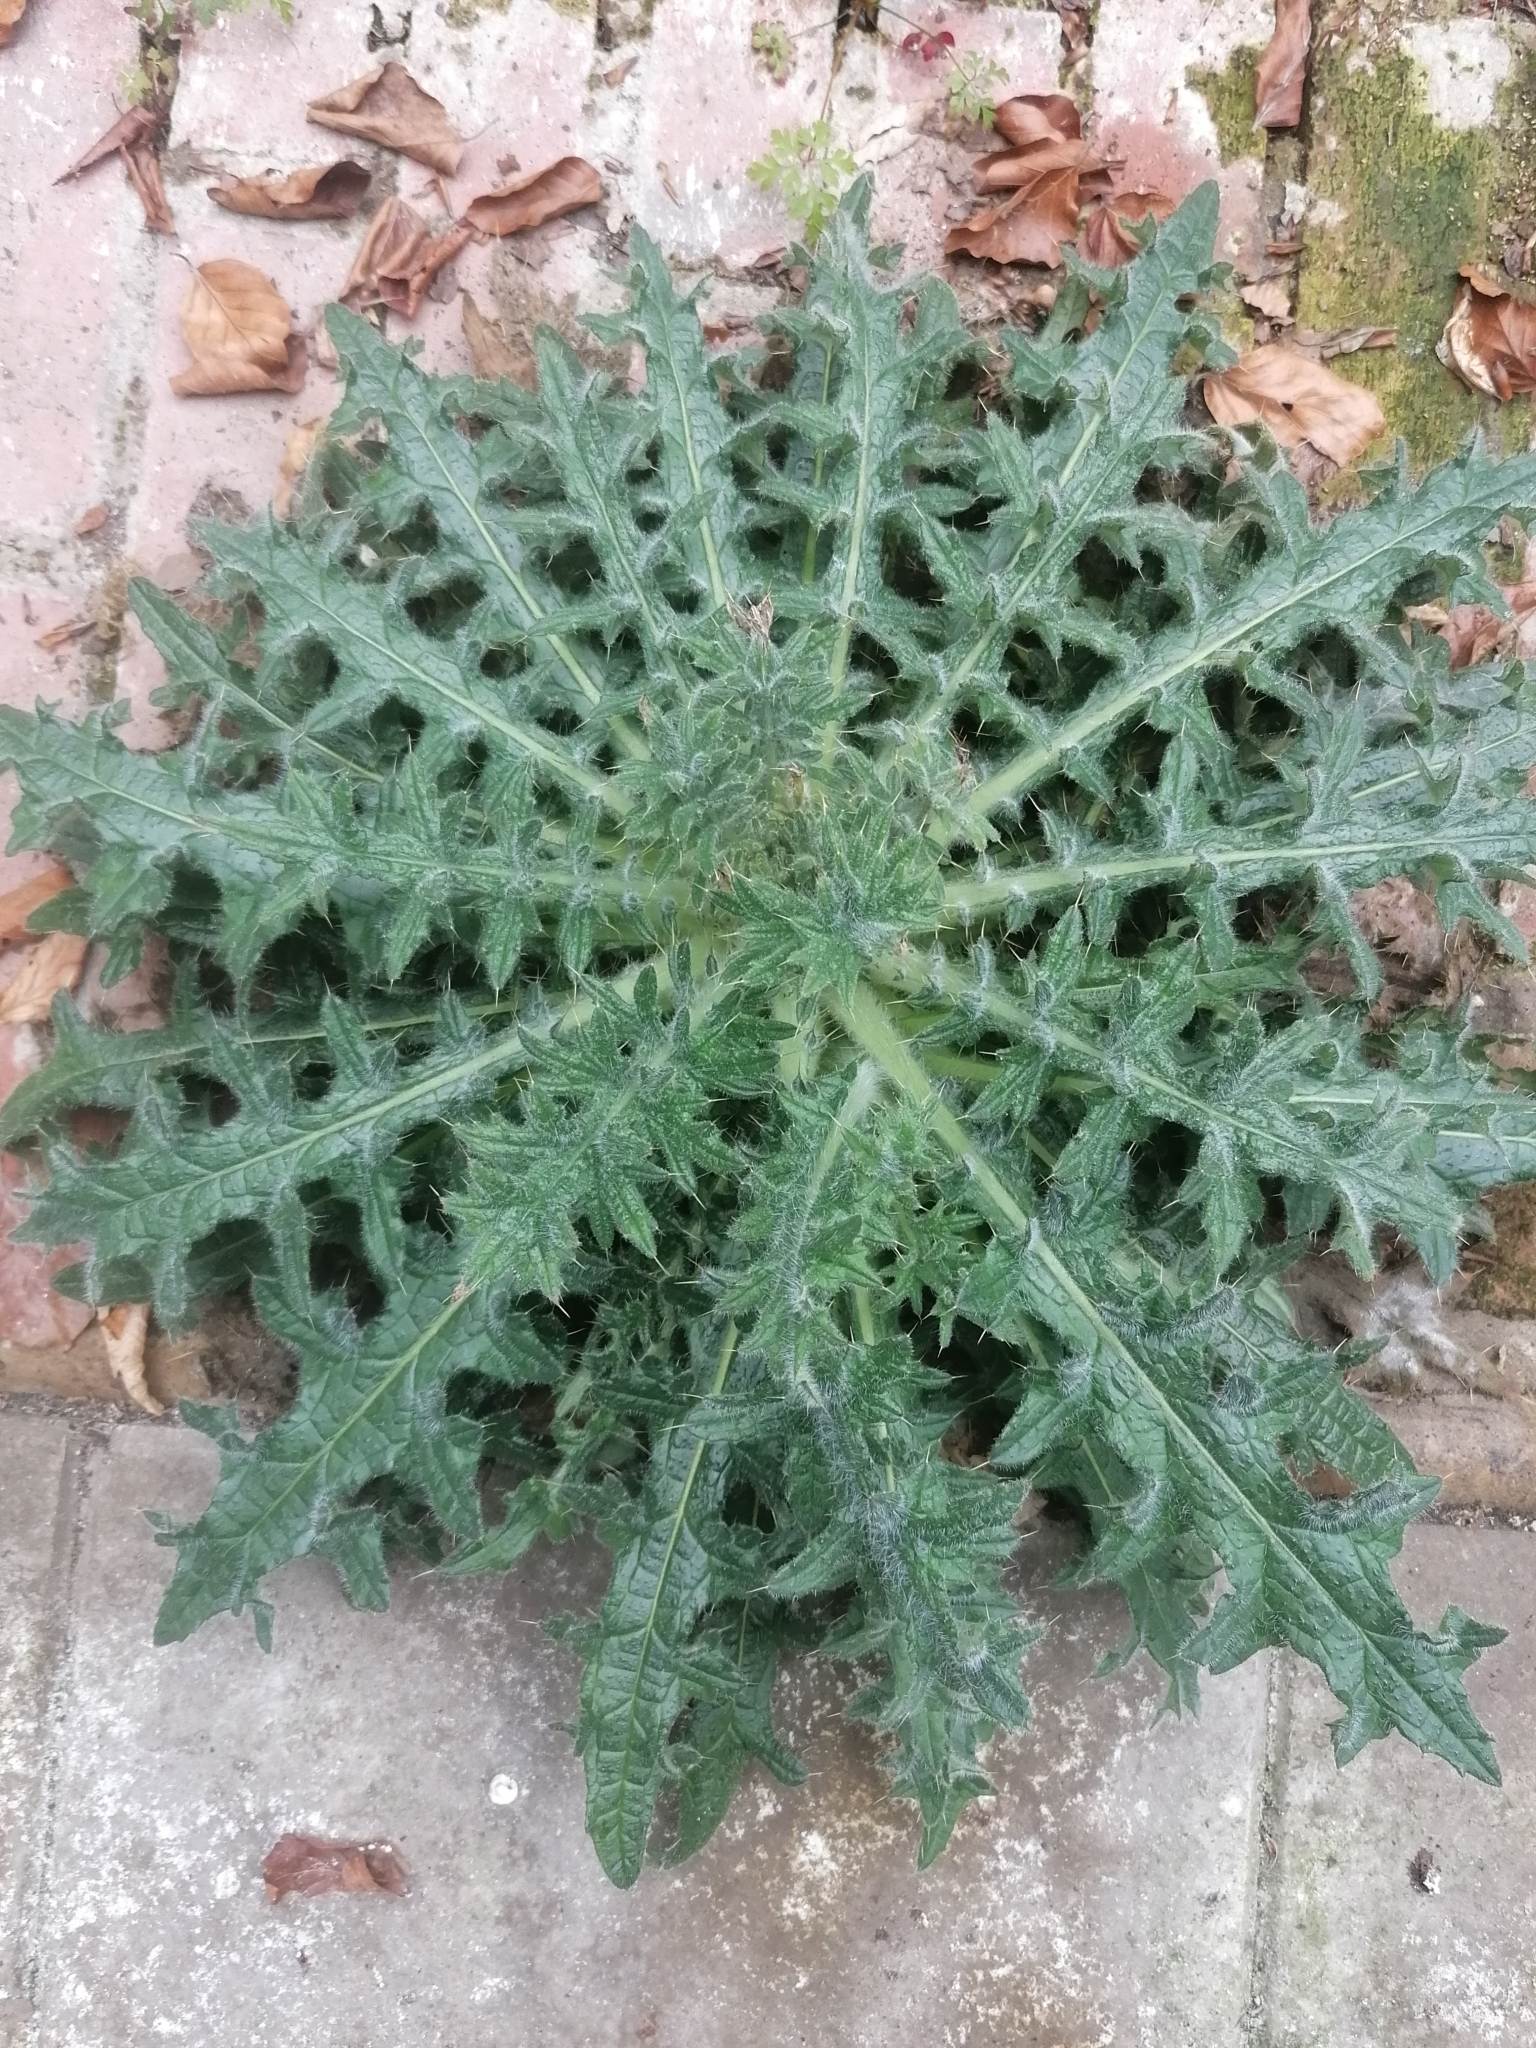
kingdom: Plantae
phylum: Tracheophyta
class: Magnoliopsida
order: Asterales
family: Asteraceae
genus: Cirsium
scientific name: Cirsium vulgare
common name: Bull thistle
